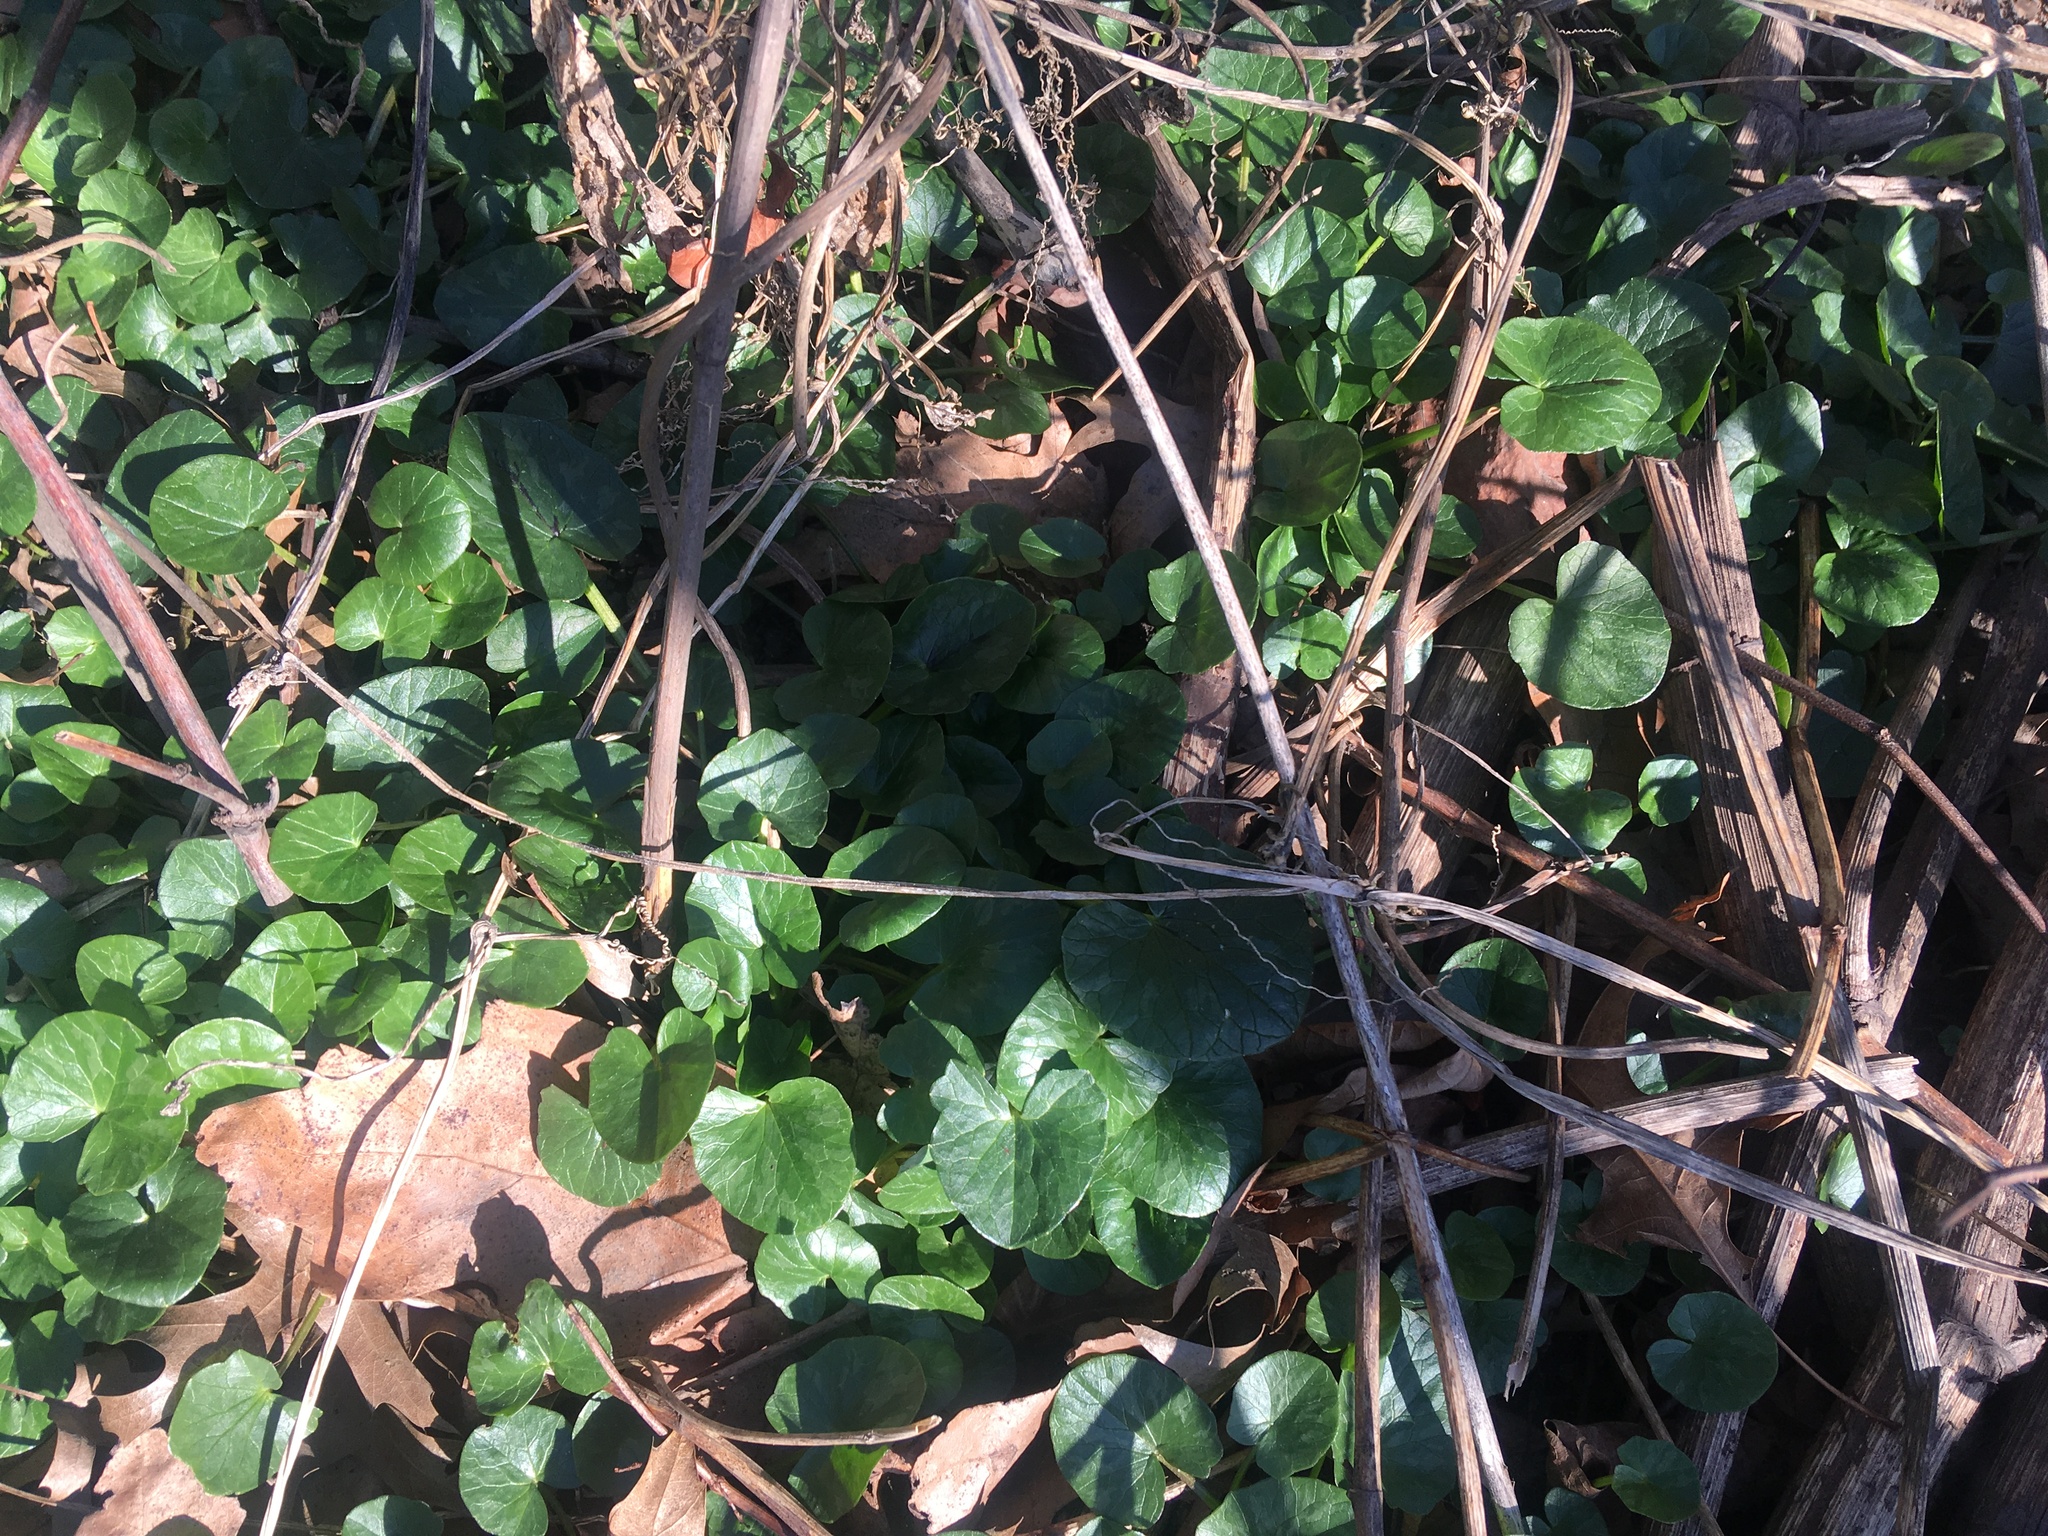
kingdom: Plantae
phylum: Tracheophyta
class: Magnoliopsida
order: Ranunculales
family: Ranunculaceae
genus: Ficaria
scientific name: Ficaria verna
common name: Lesser celandine
